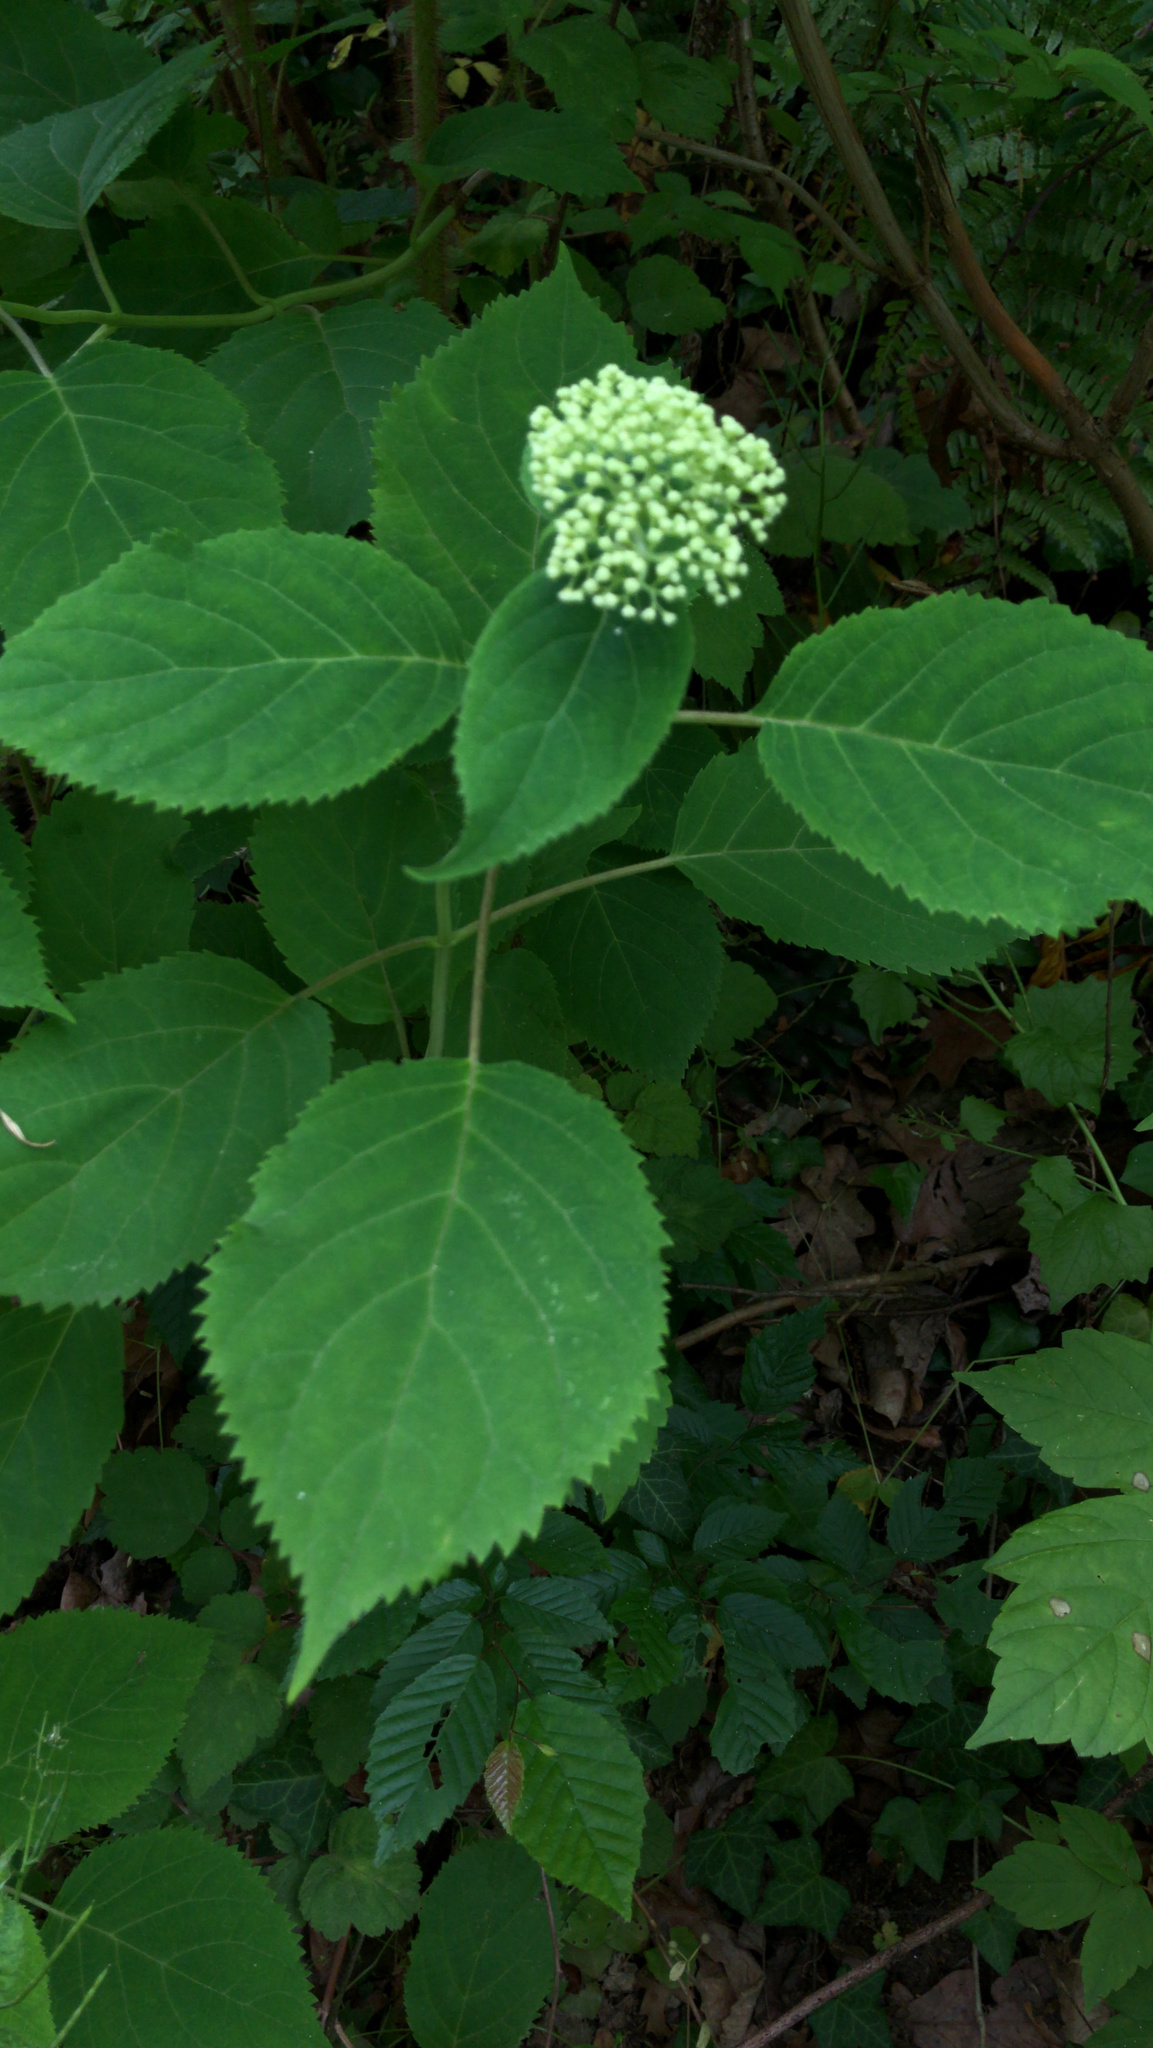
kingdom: Plantae
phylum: Tracheophyta
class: Magnoliopsida
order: Cornales
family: Hydrangeaceae
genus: Hydrangea
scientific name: Hydrangea arborescens
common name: Sevenbark
